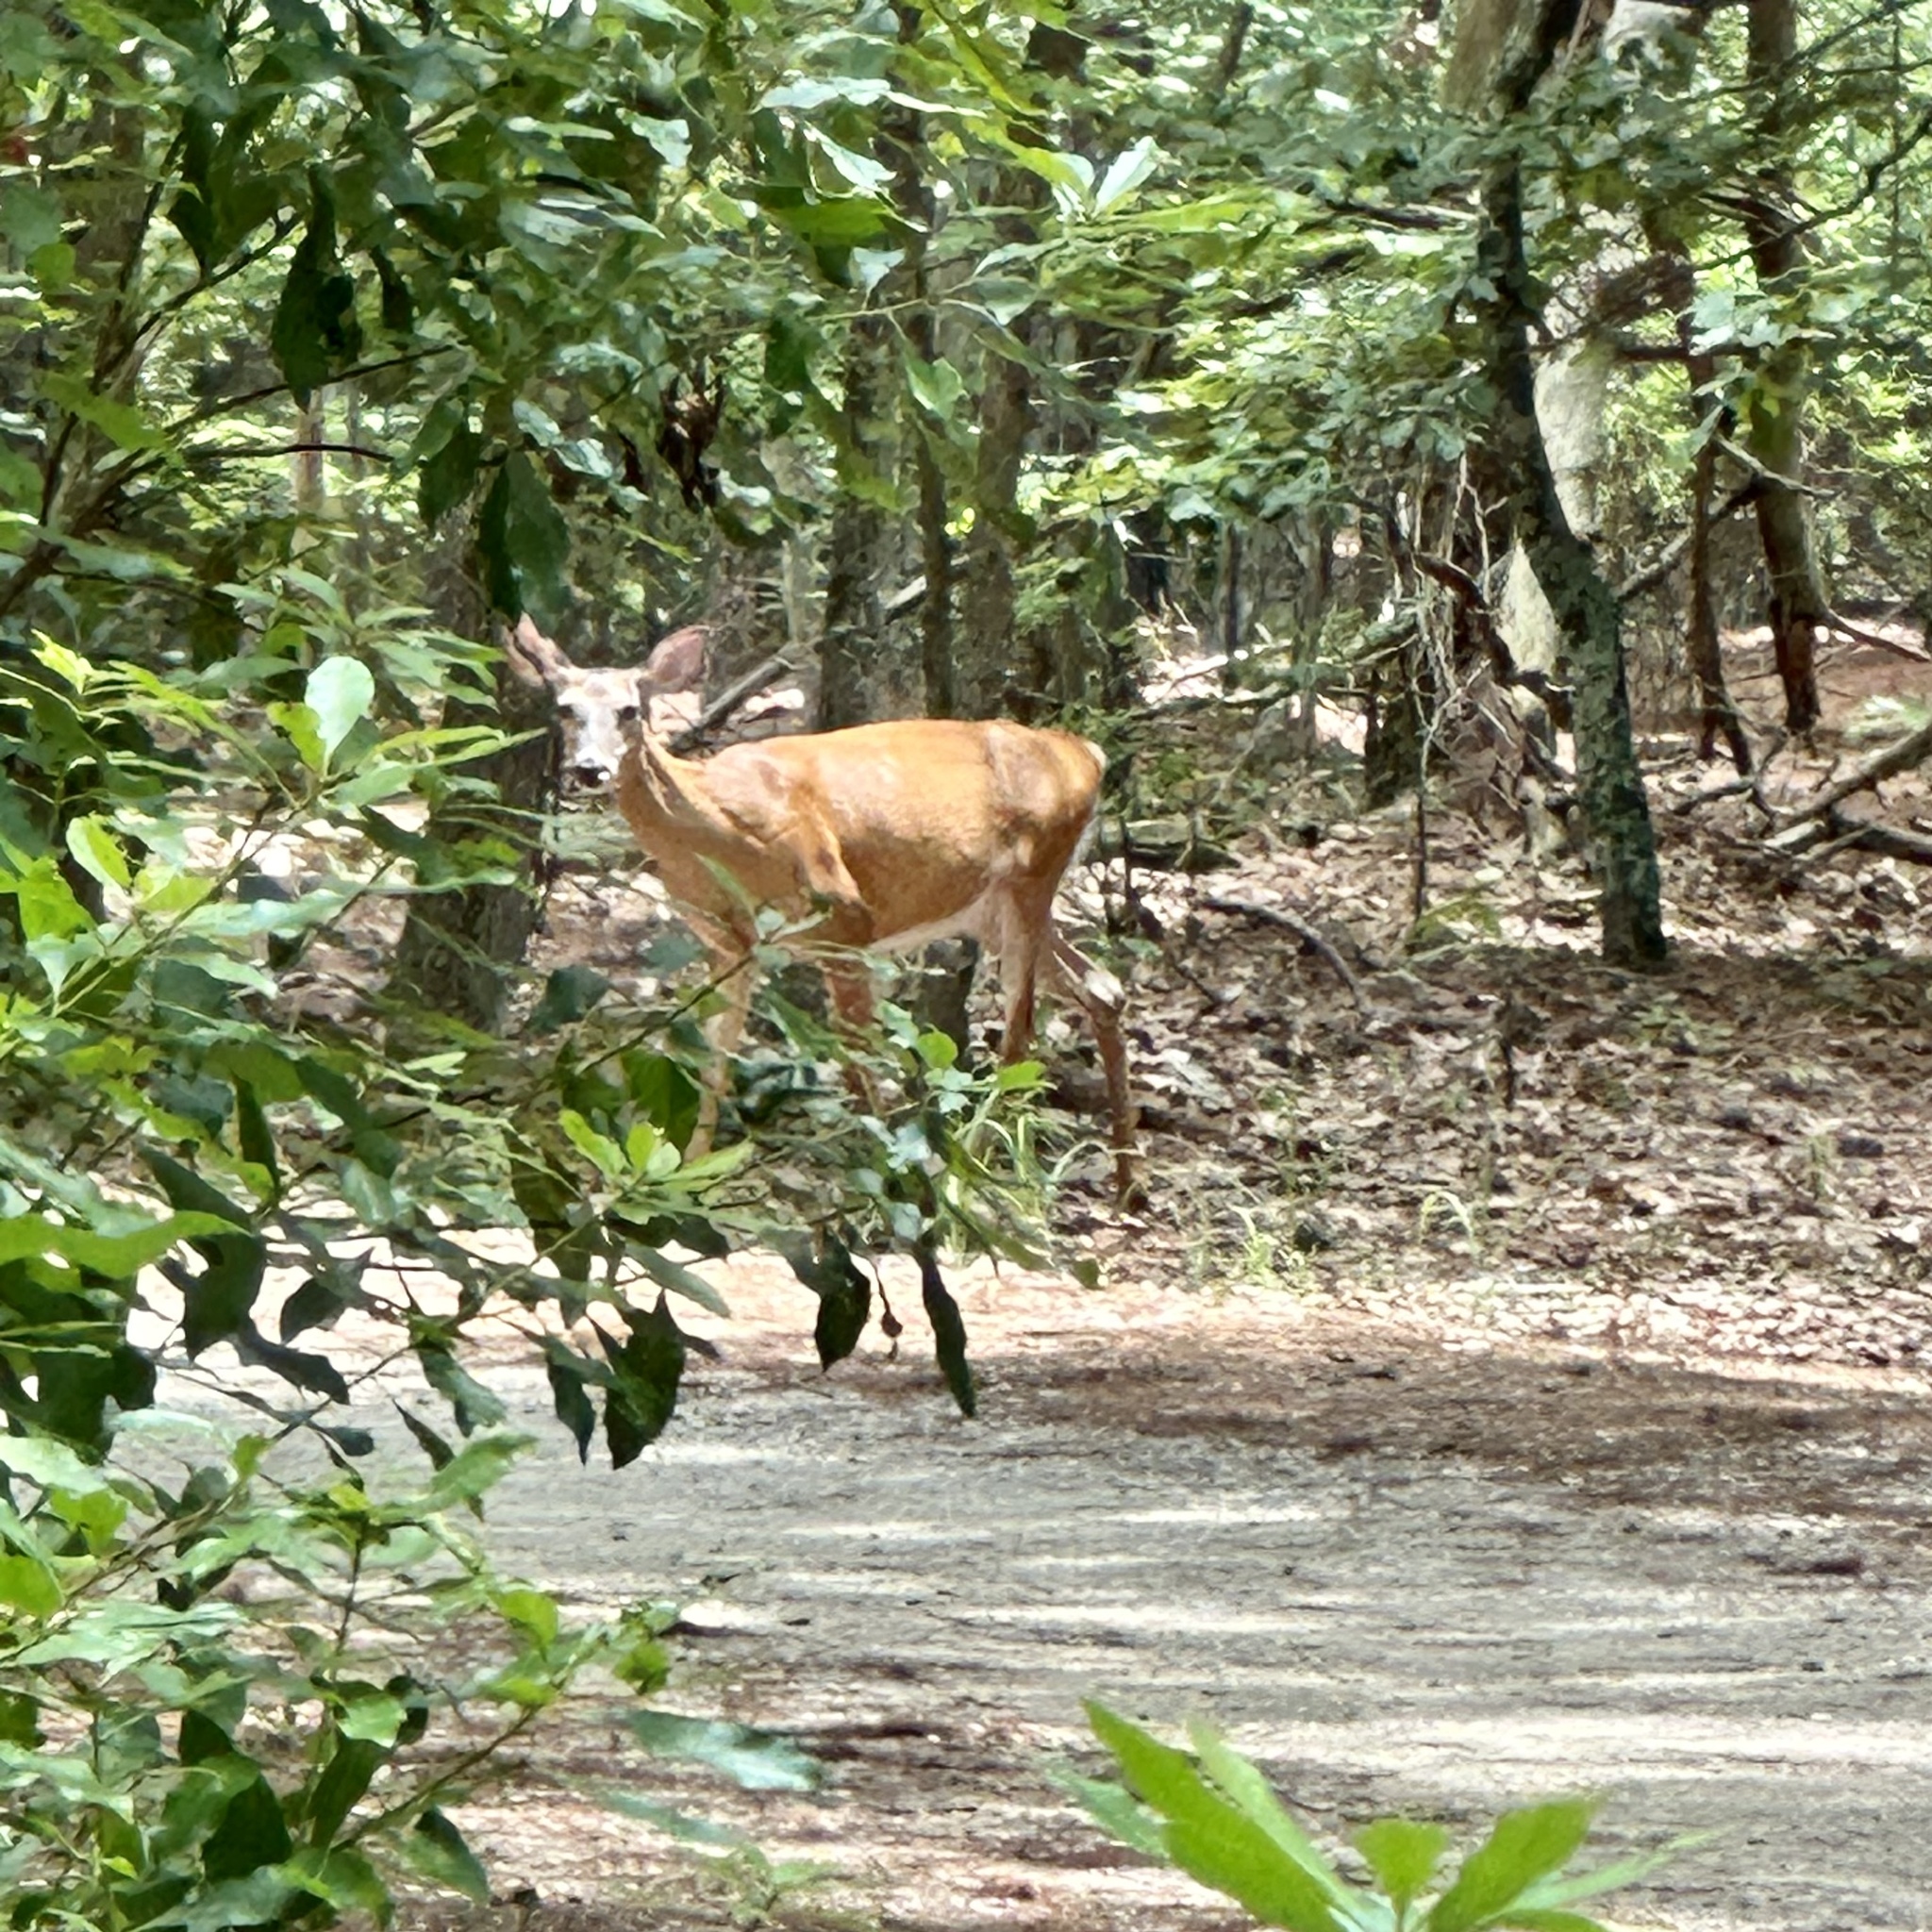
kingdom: Animalia
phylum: Chordata
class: Mammalia
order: Artiodactyla
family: Cervidae
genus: Odocoileus
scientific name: Odocoileus virginianus
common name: White-tailed deer
